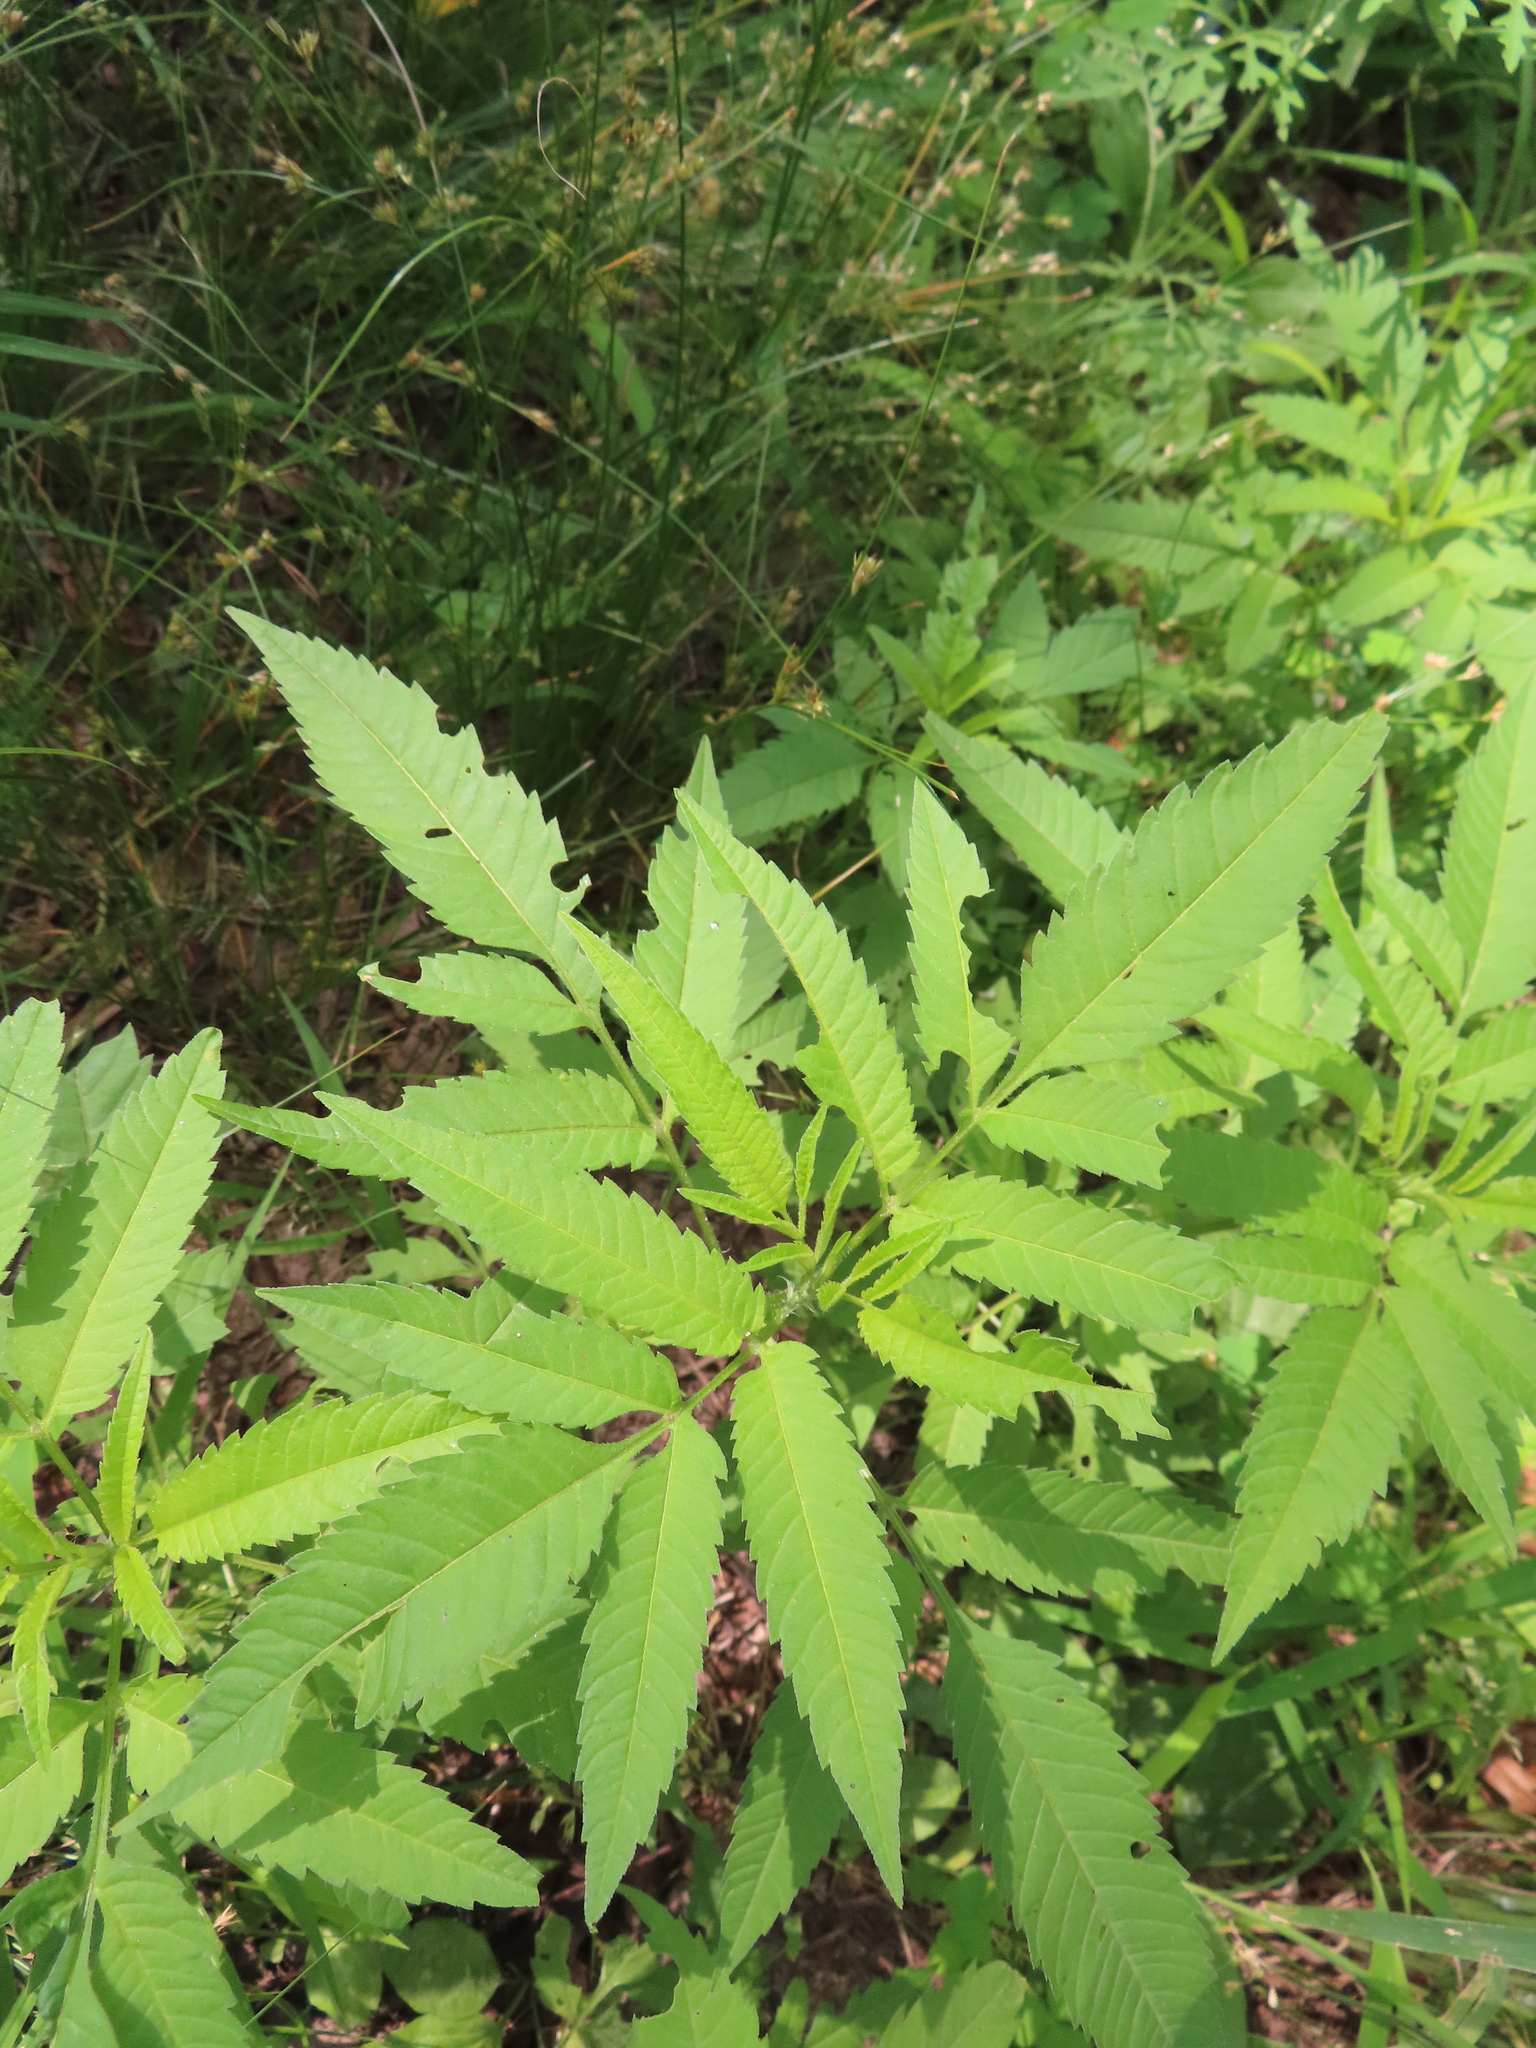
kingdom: Plantae
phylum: Tracheophyta
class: Magnoliopsida
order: Asterales
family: Asteraceae
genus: Bidens
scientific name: Bidens frondosa
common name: Beggarticks
